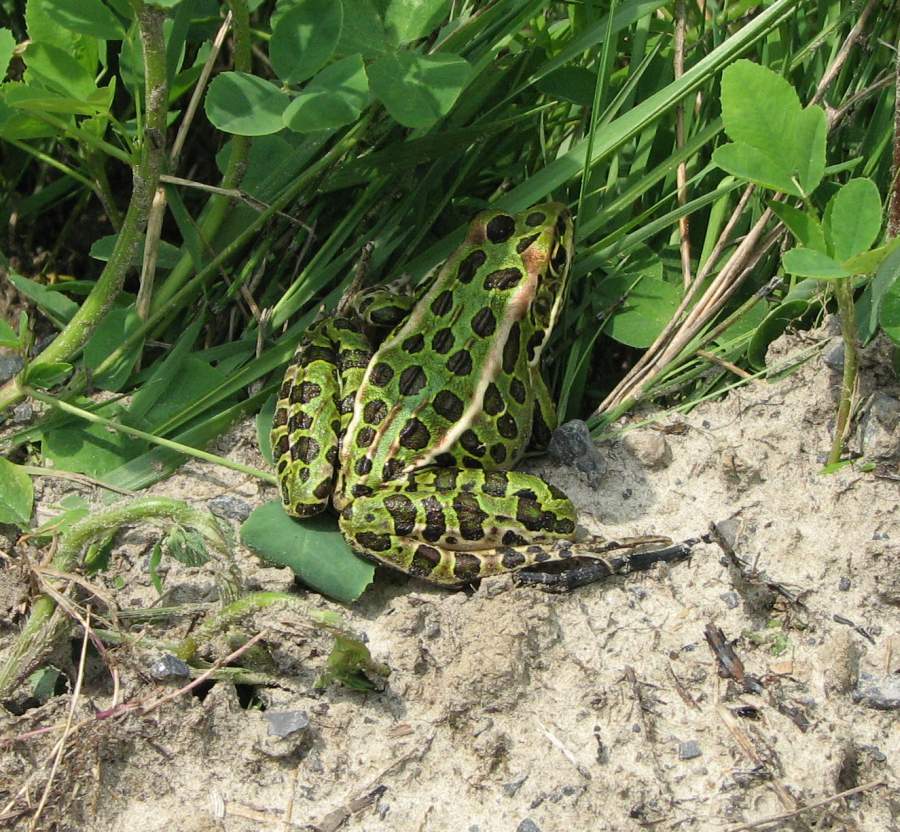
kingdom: Animalia
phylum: Chordata
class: Amphibia
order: Anura
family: Ranidae
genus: Lithobates
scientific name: Lithobates pipiens
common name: Northern leopard frog
